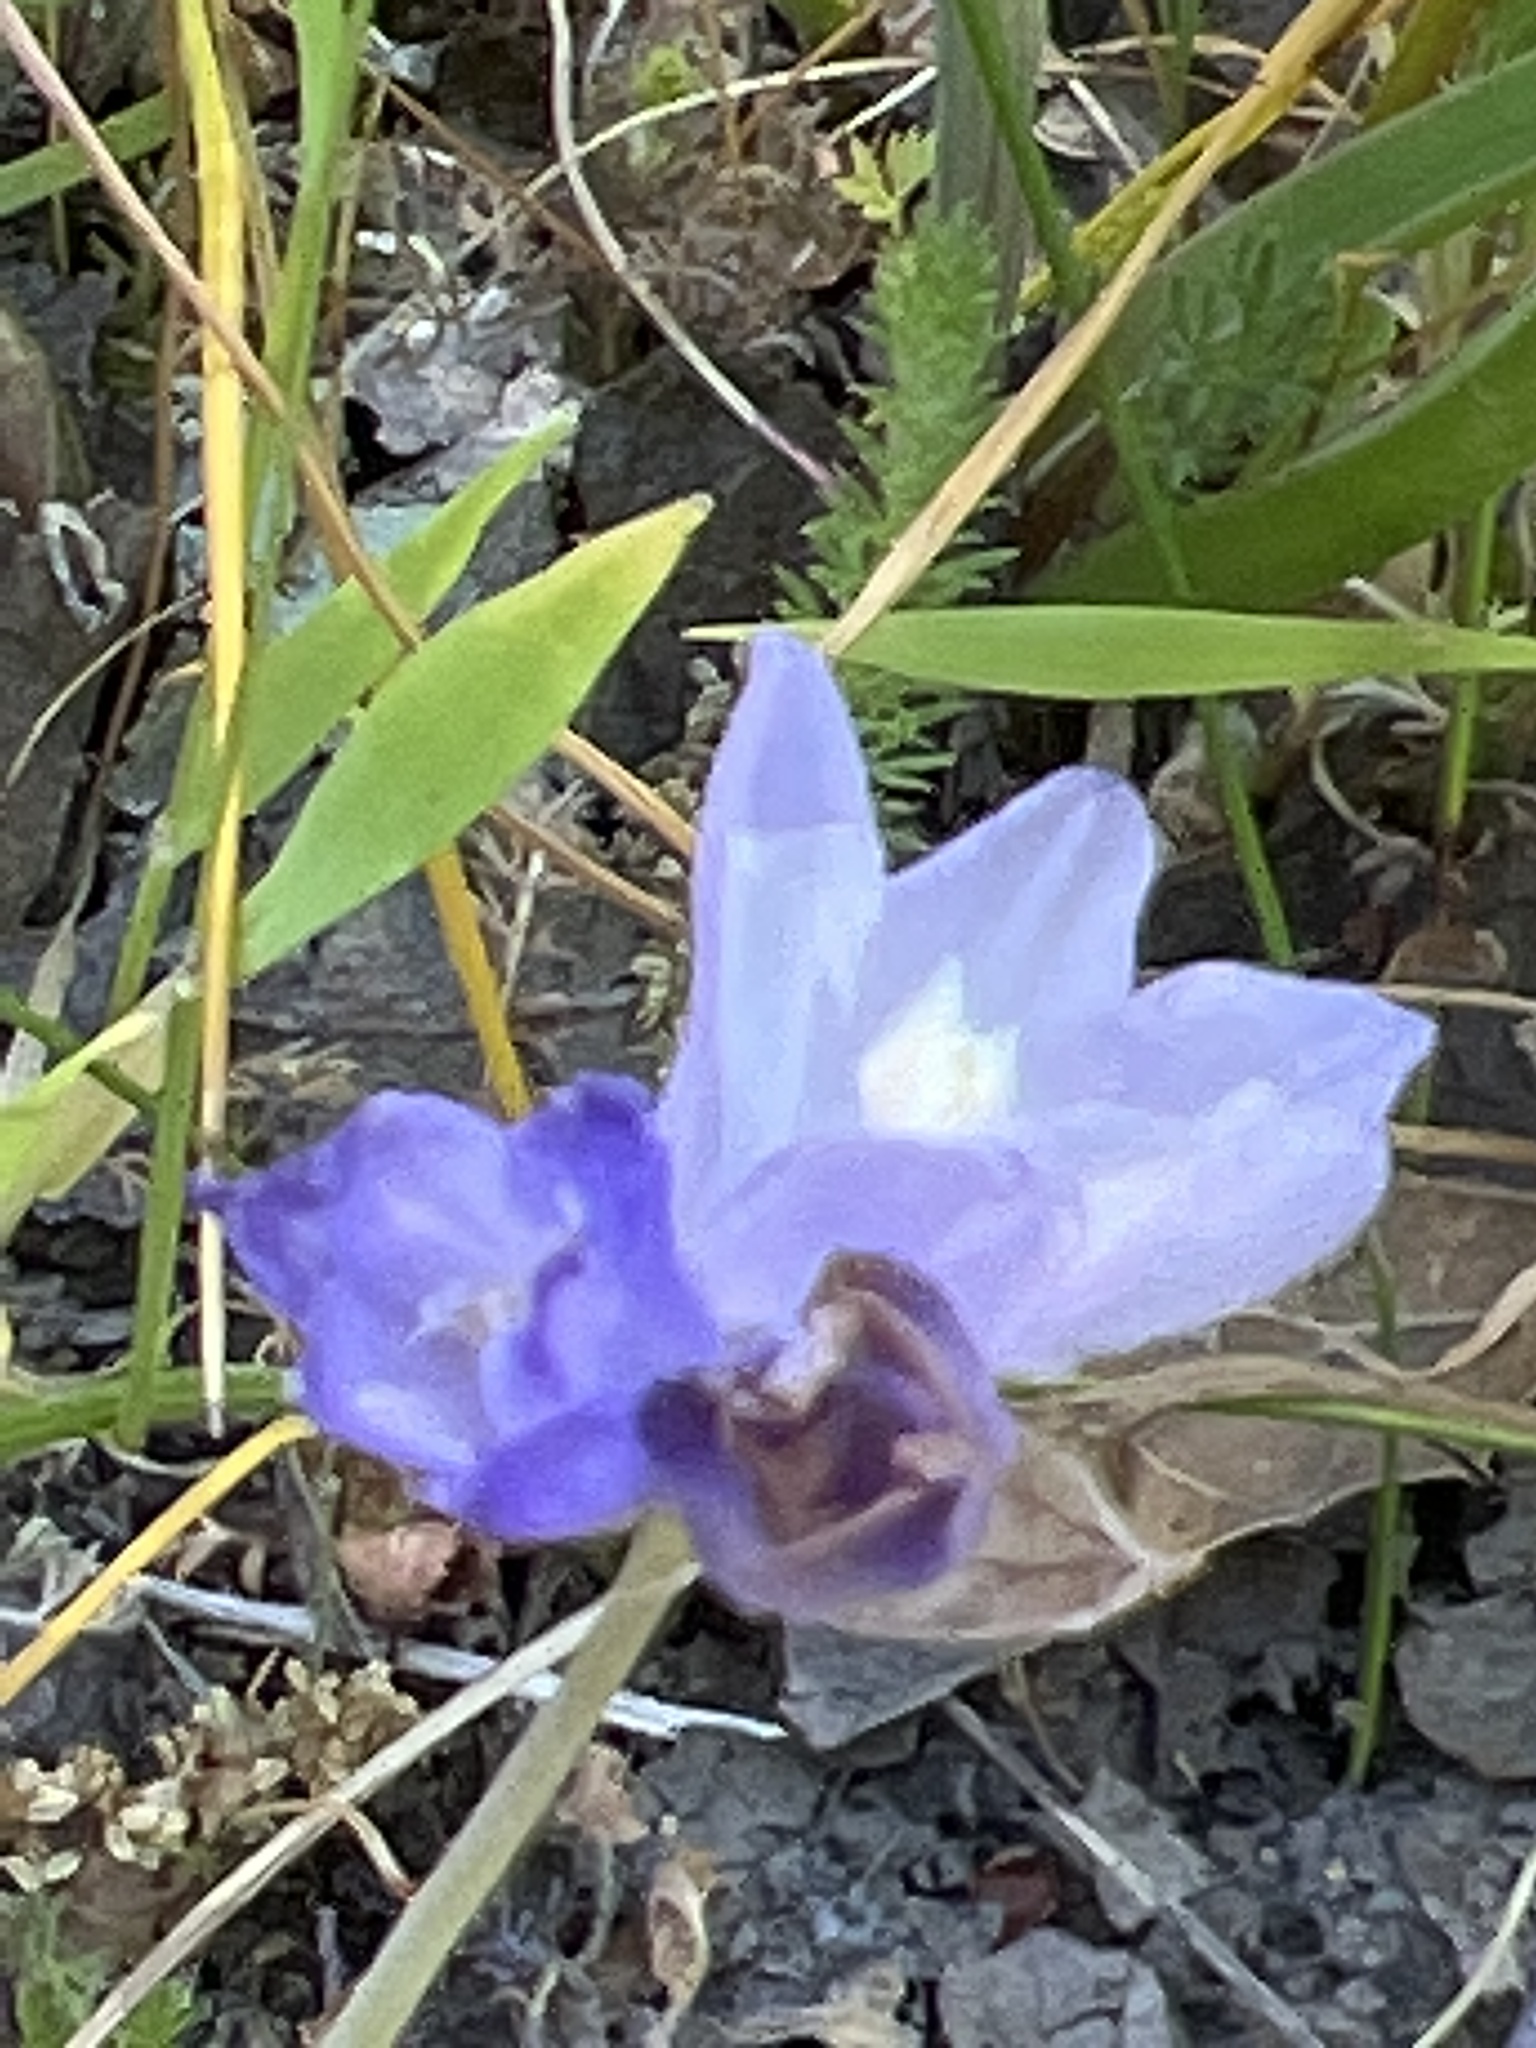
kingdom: Plantae
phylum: Tracheophyta
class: Liliopsida
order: Asparagales
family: Asparagaceae
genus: Dipterostemon
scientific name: Dipterostemon capitatus
